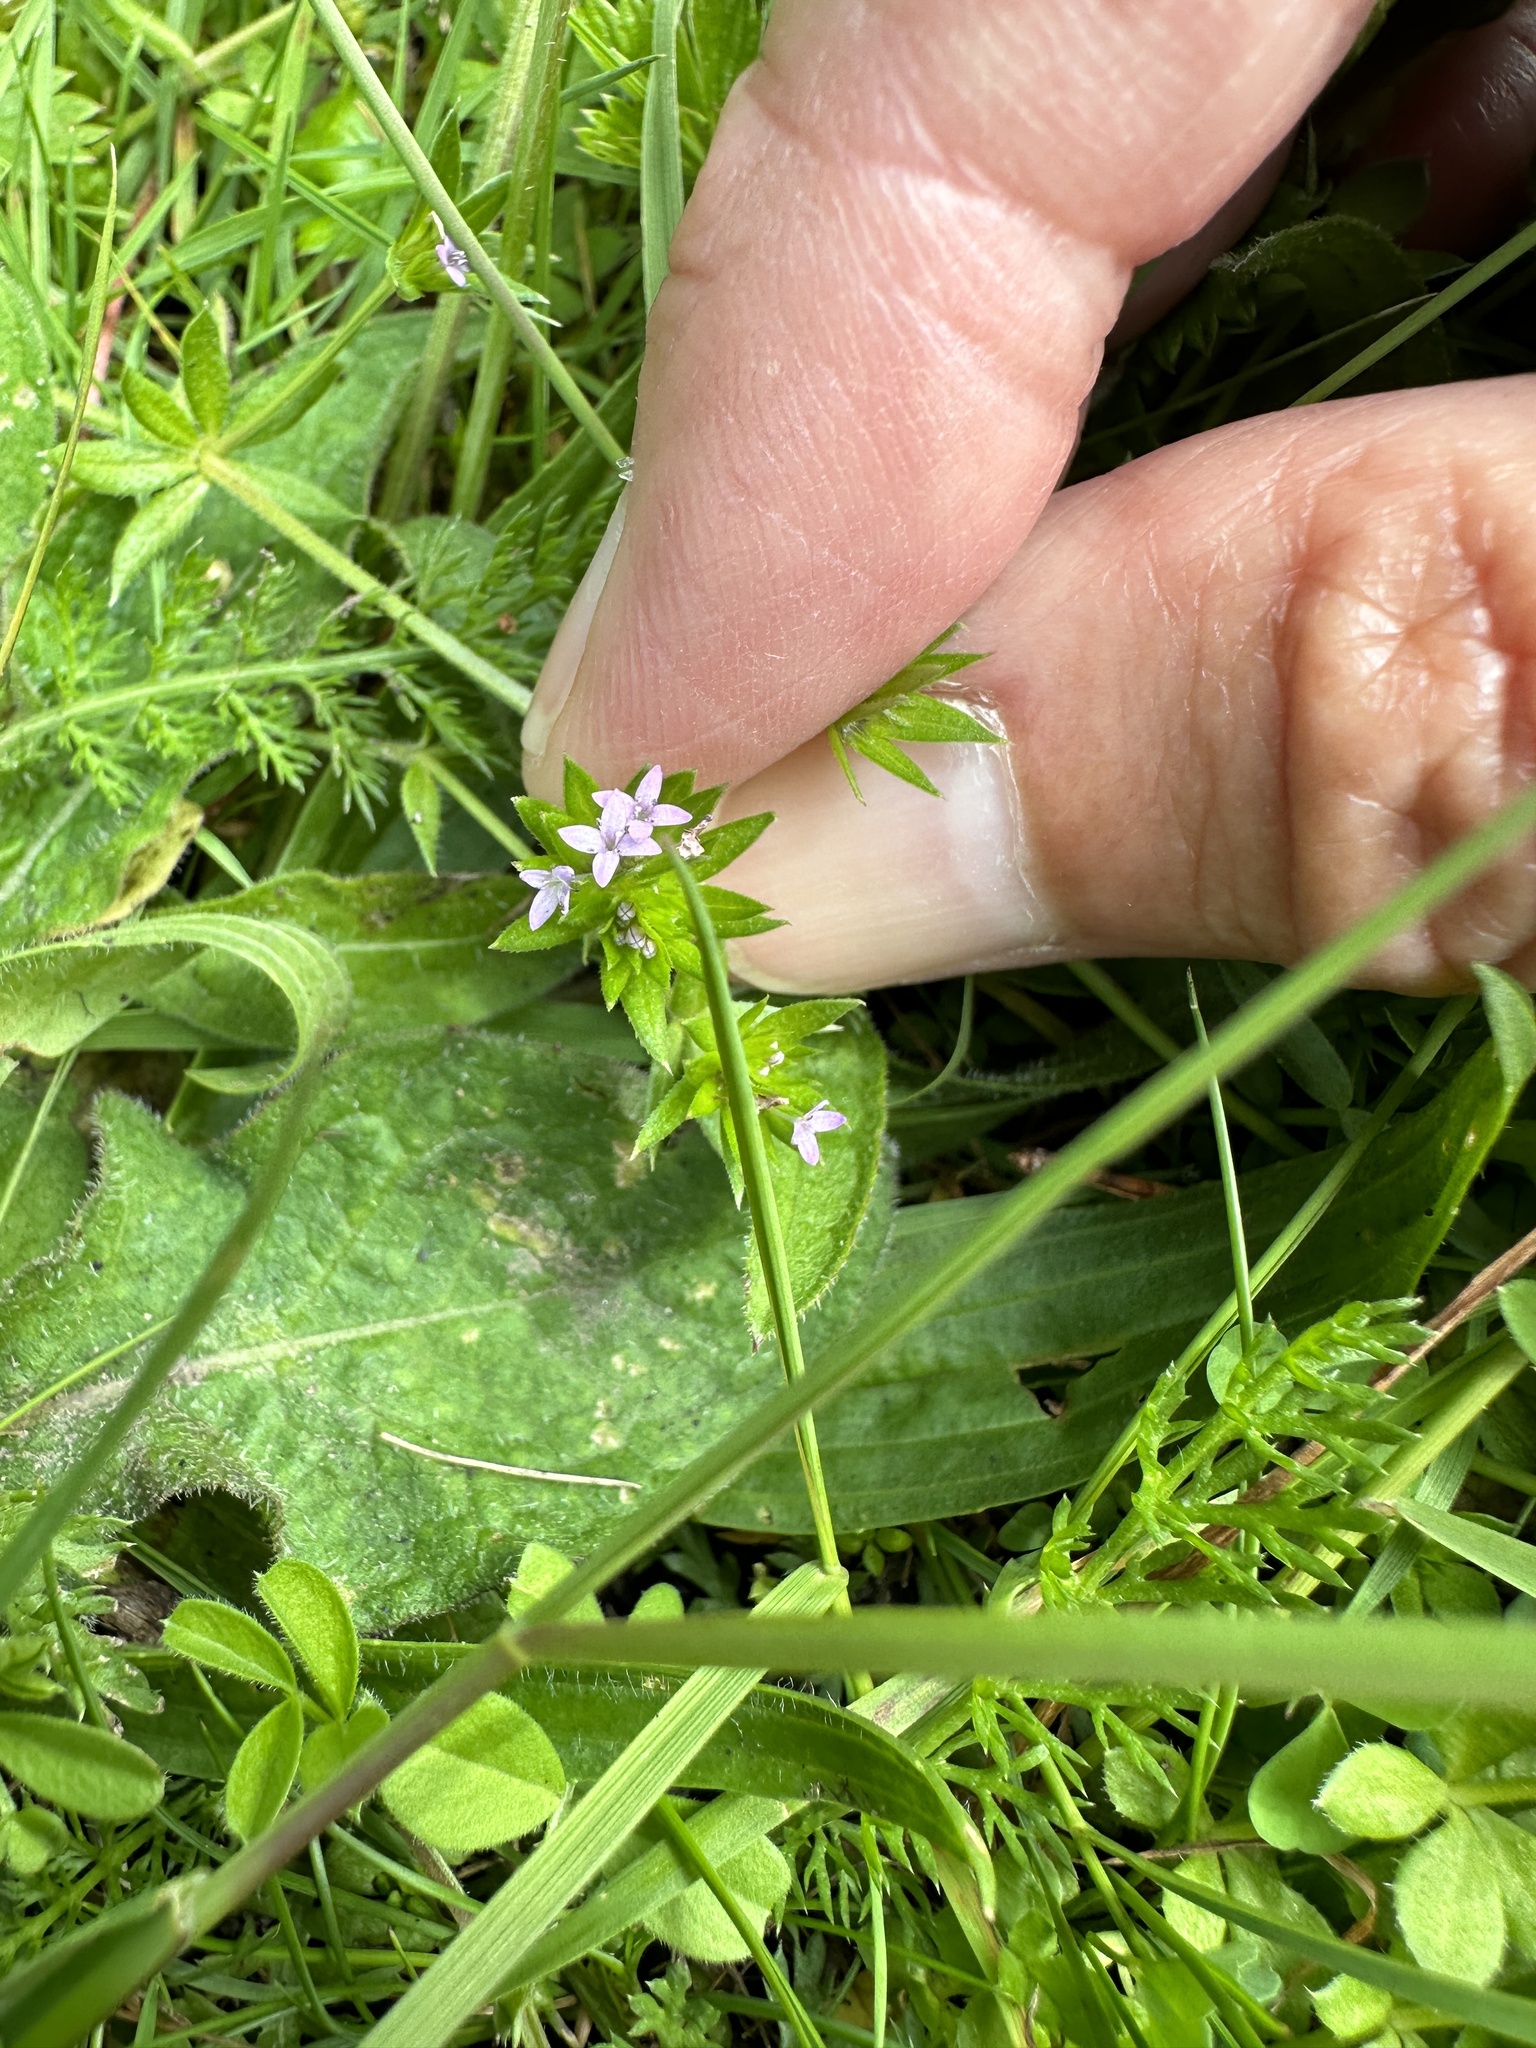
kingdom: Plantae
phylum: Tracheophyta
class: Magnoliopsida
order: Gentianales
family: Rubiaceae
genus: Sherardia
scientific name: Sherardia arvensis
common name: Field madder
